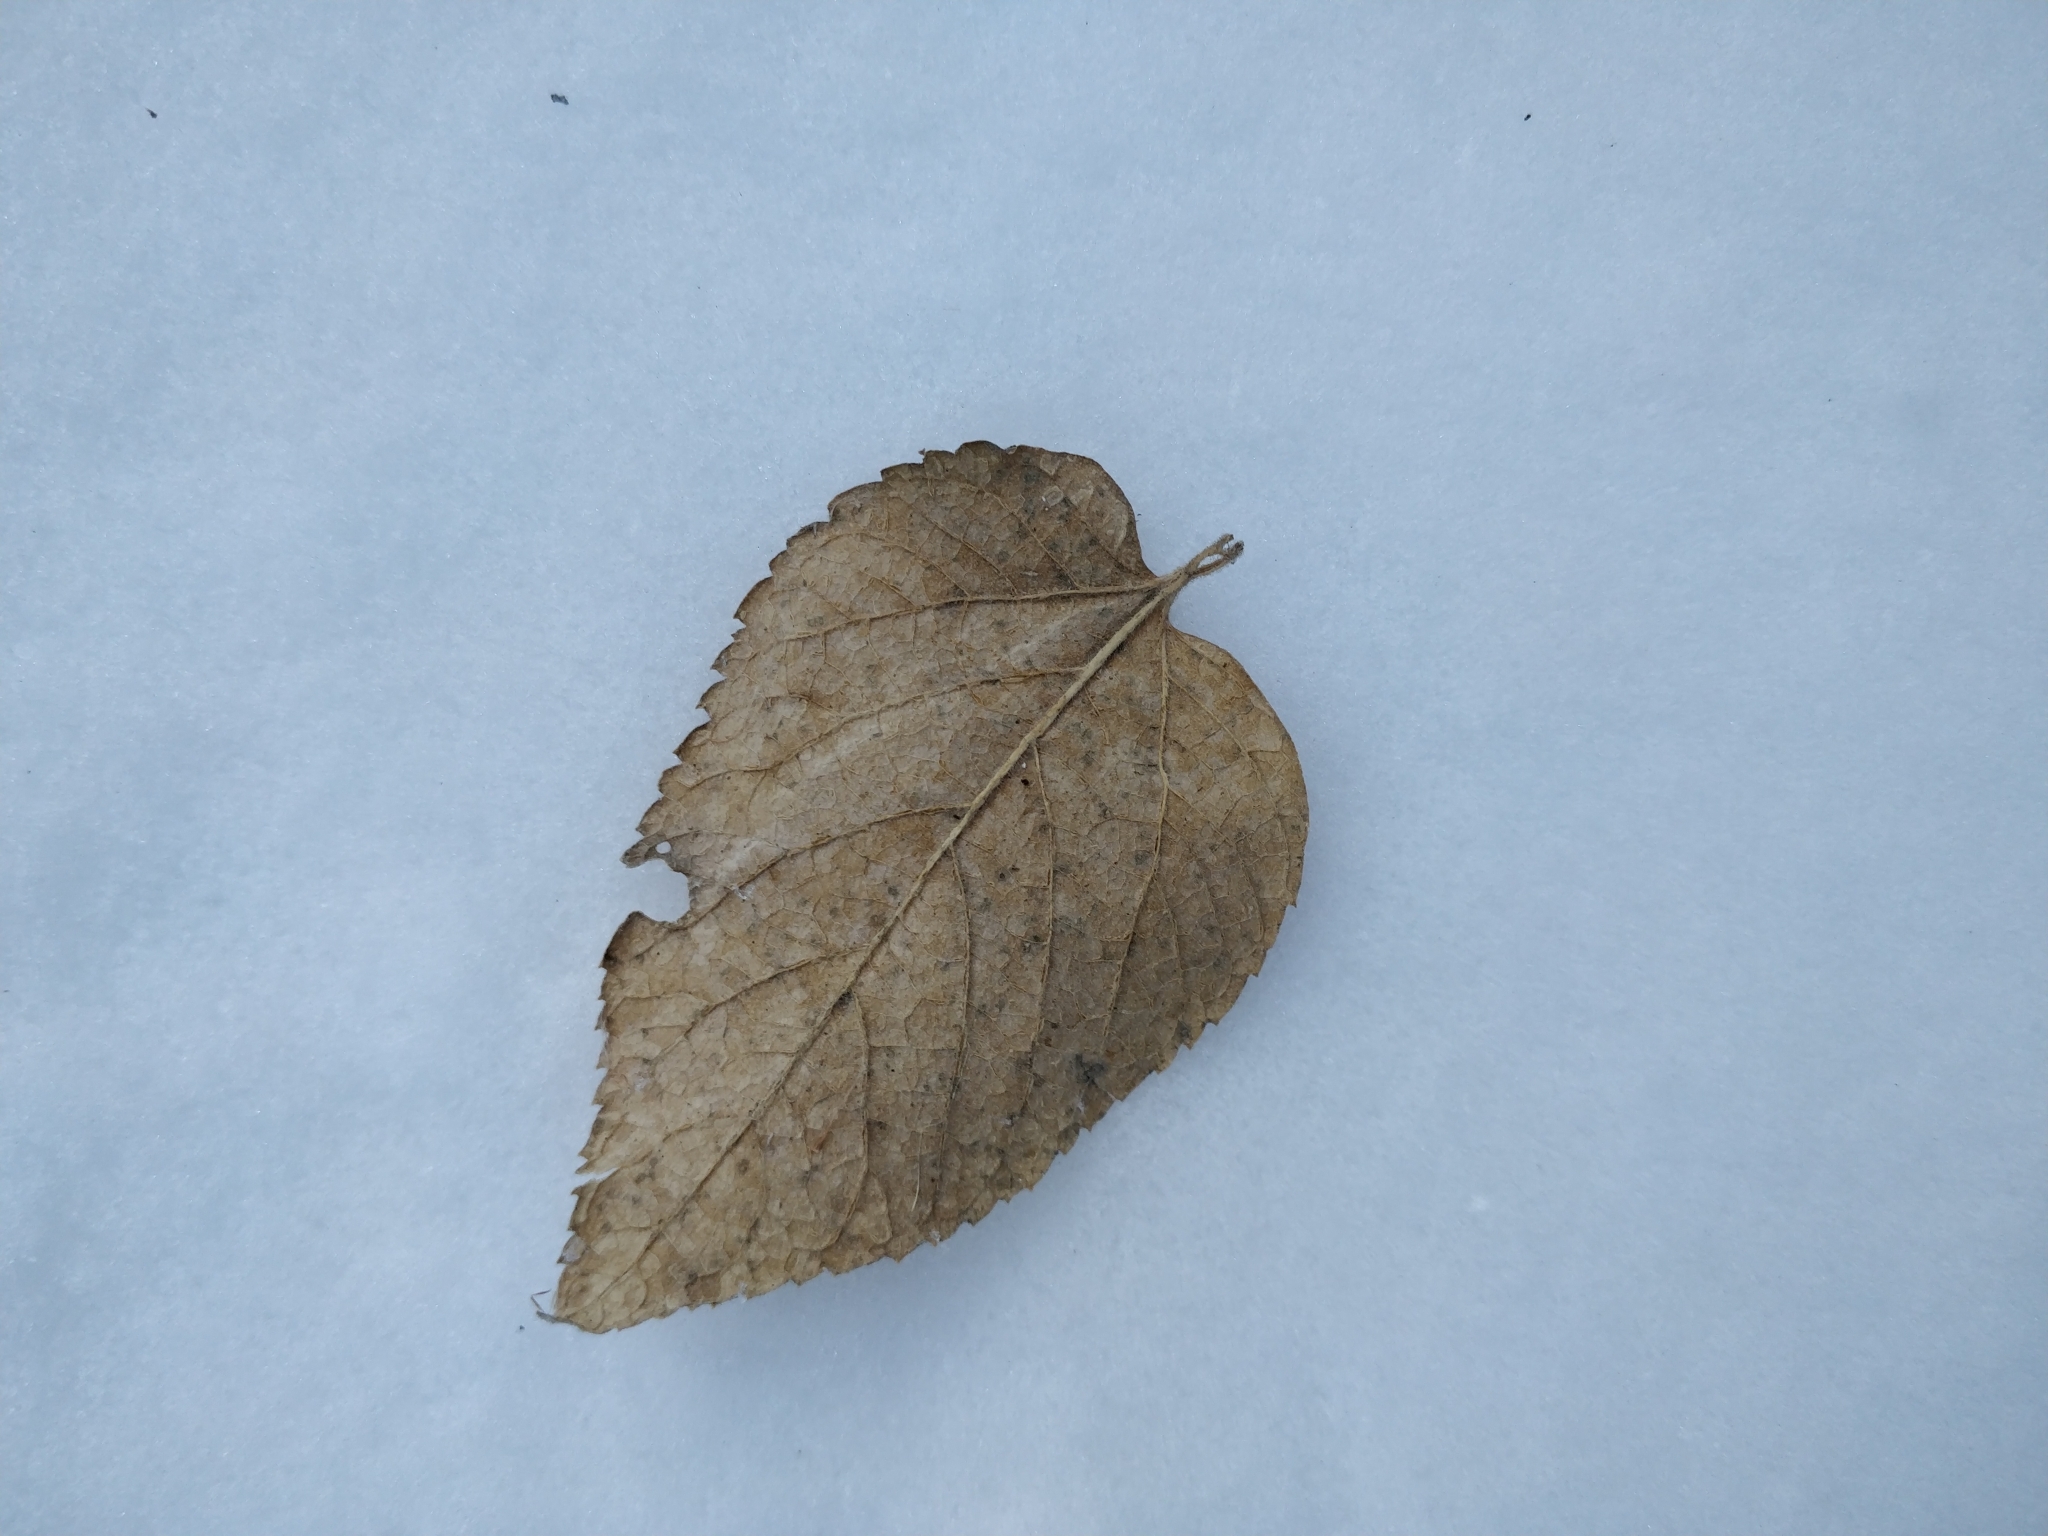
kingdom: Plantae
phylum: Tracheophyta
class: Magnoliopsida
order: Rosales
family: Cannabaceae
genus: Celtis
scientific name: Celtis occidentalis
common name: Common hackberry
